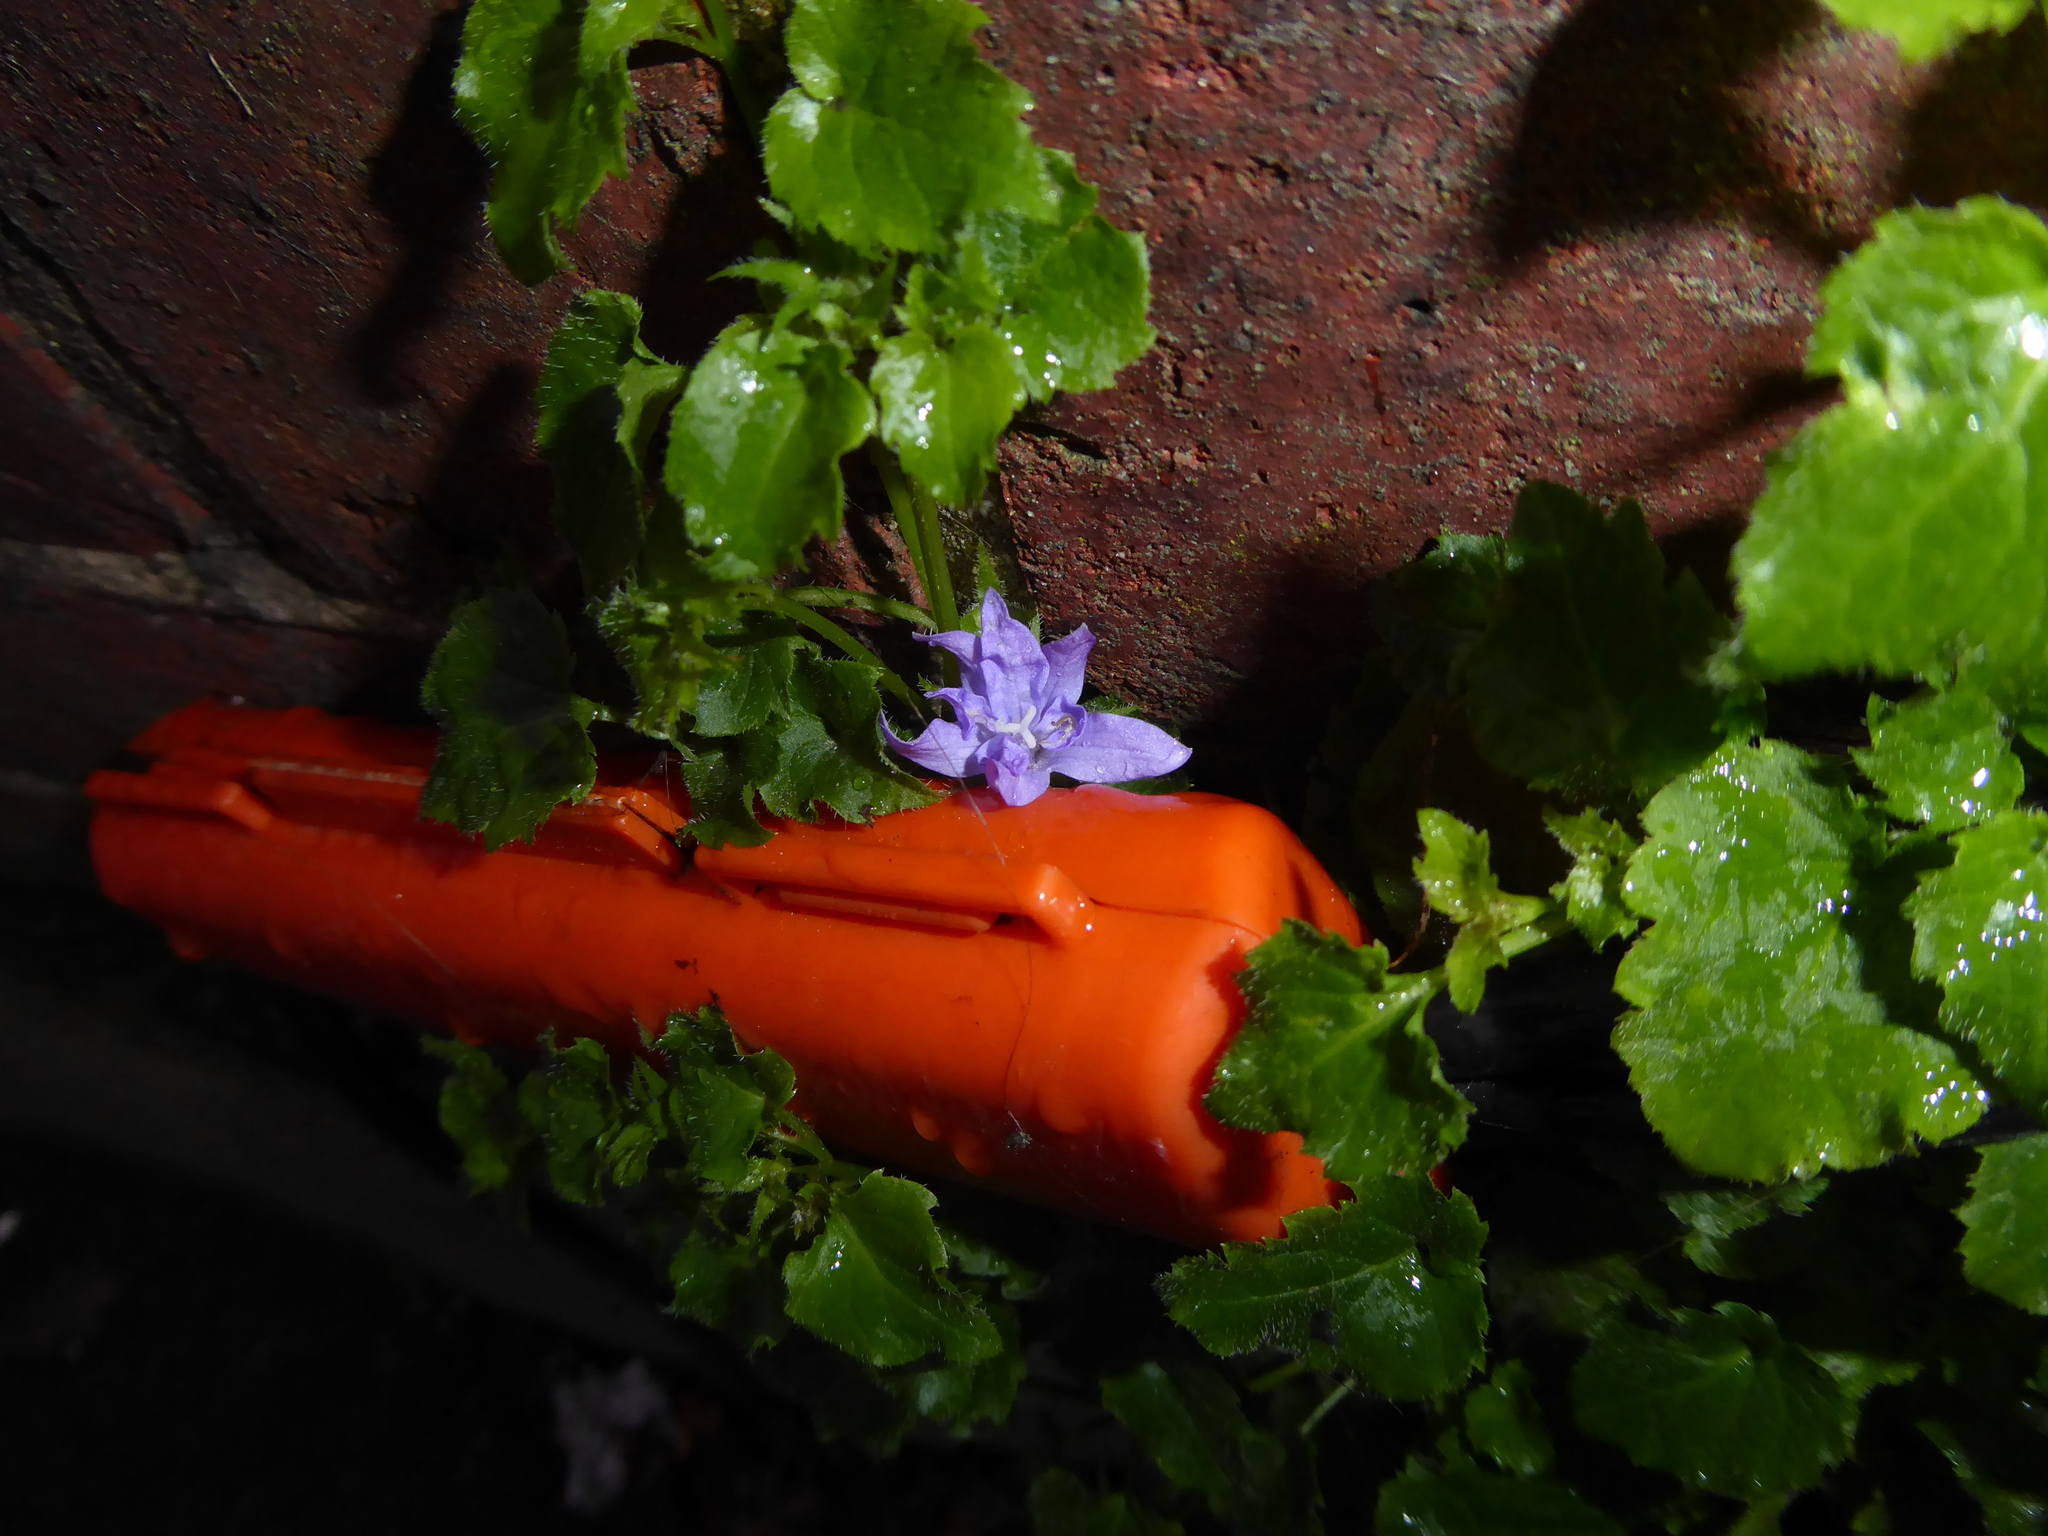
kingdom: Plantae
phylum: Tracheophyta
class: Magnoliopsida
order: Asterales
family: Campanulaceae
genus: Campanula
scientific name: Campanula poscharskyana
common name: Trailing bellflower
